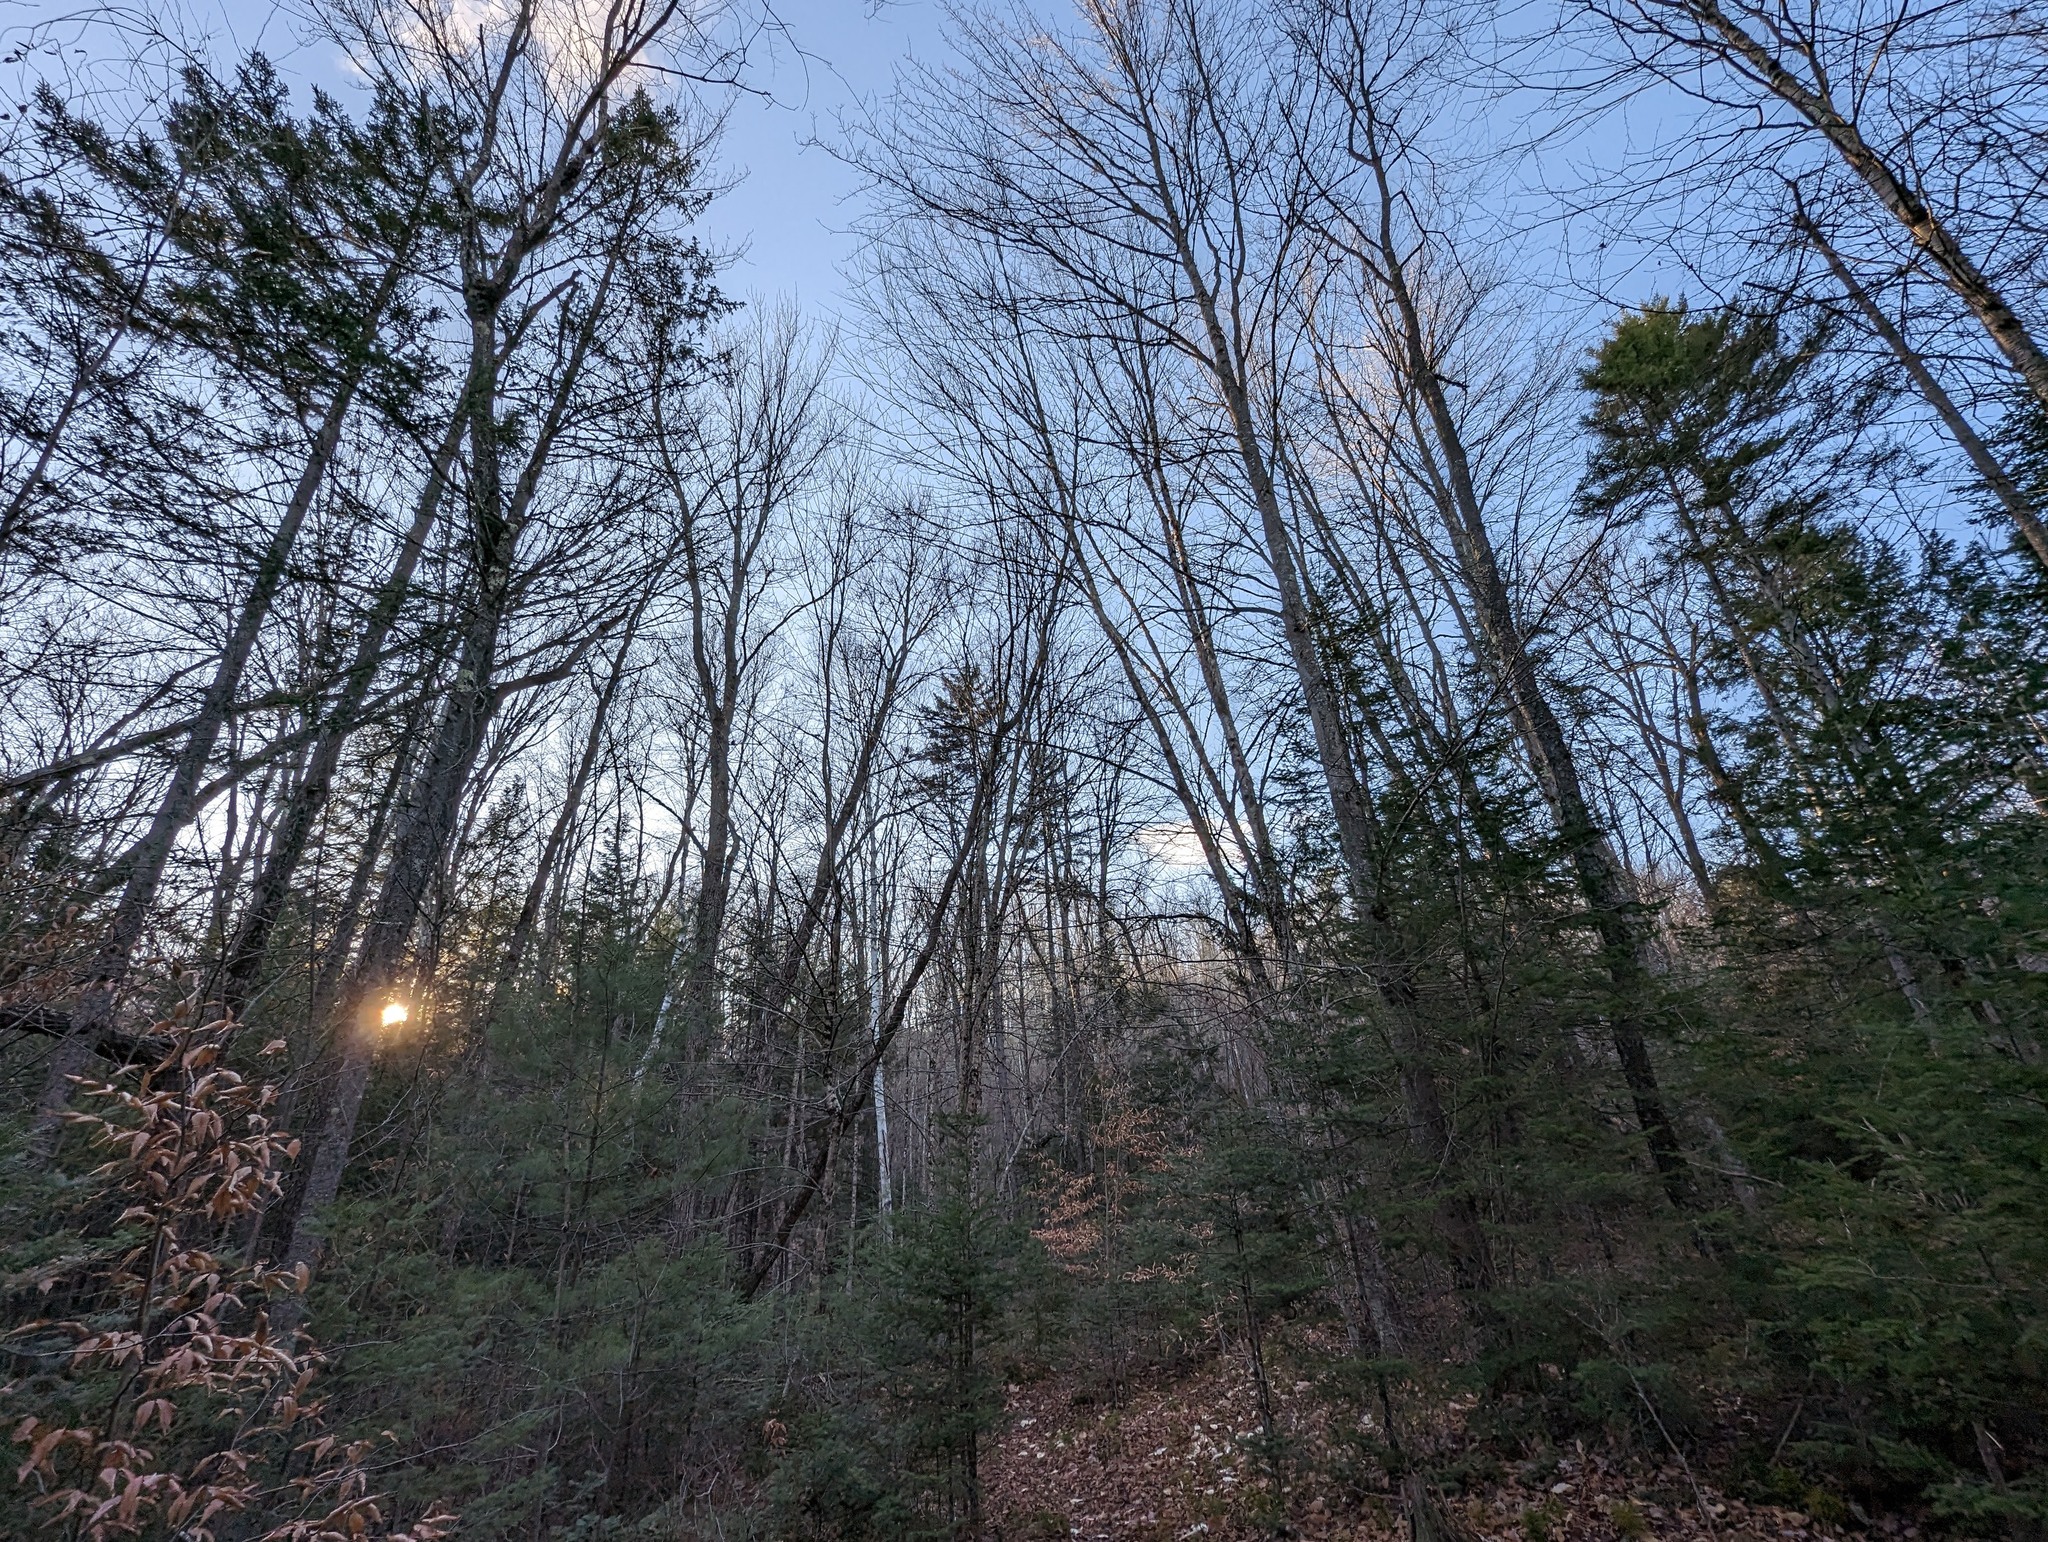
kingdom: Plantae
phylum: Tracheophyta
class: Pinopsida
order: Pinales
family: Pinaceae
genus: Pinus
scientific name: Pinus strobus
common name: Weymouth pine
